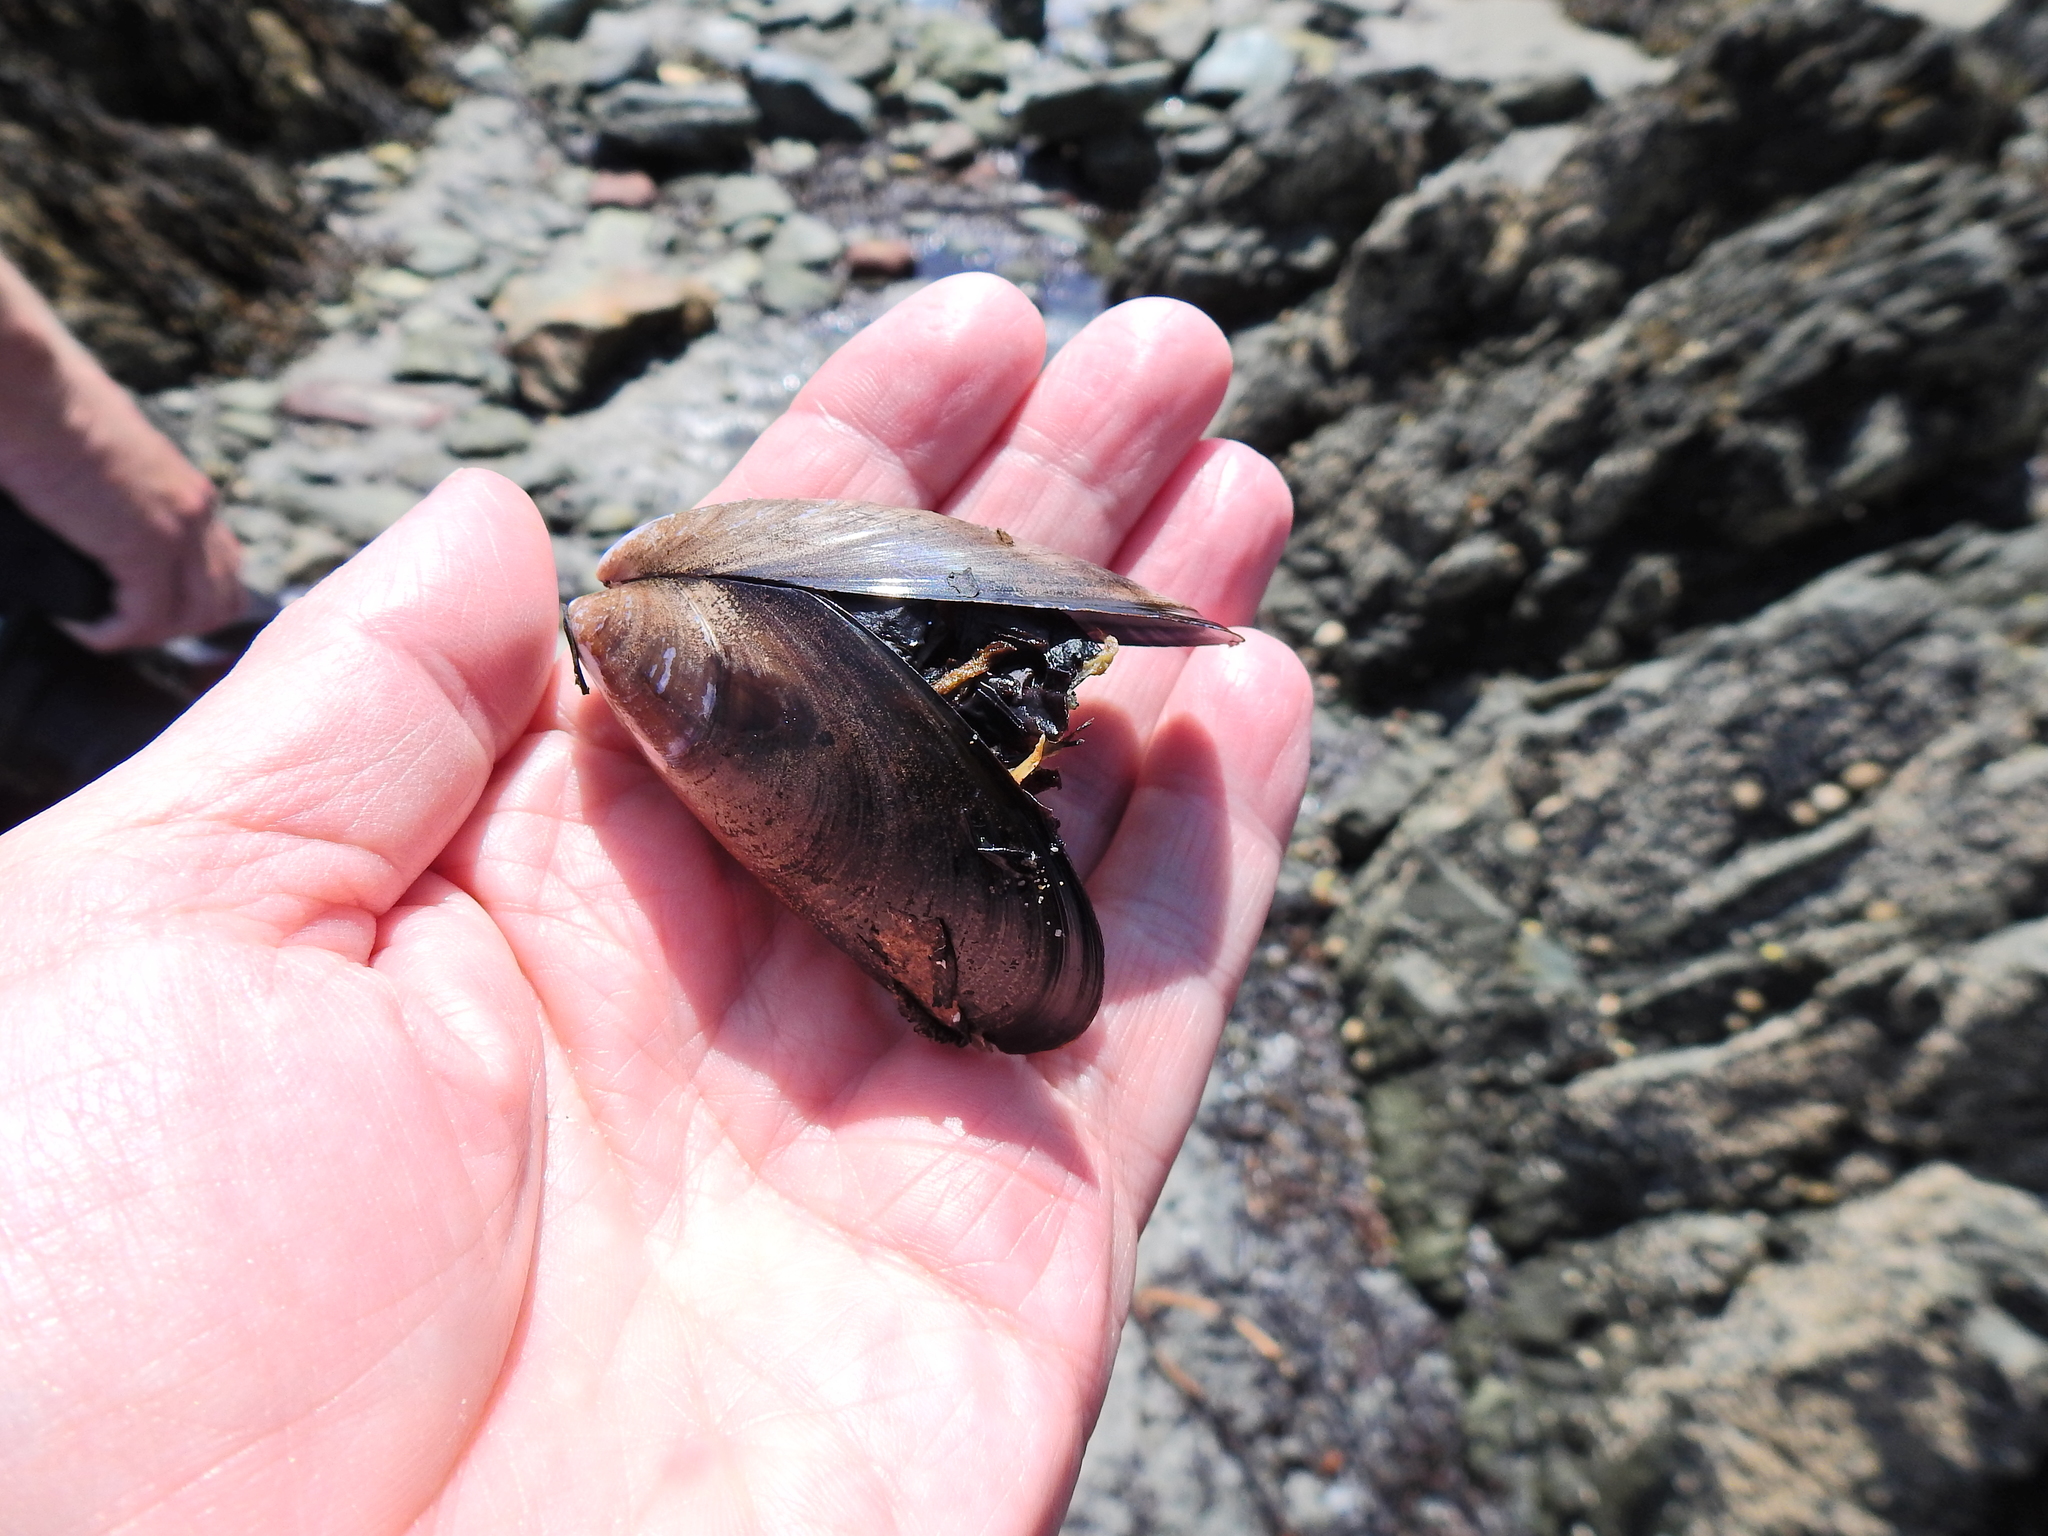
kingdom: Animalia
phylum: Mollusca
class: Bivalvia
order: Mytilida
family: Mytilidae
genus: Mytilus
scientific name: Mytilus edulis
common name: Blue mussel
